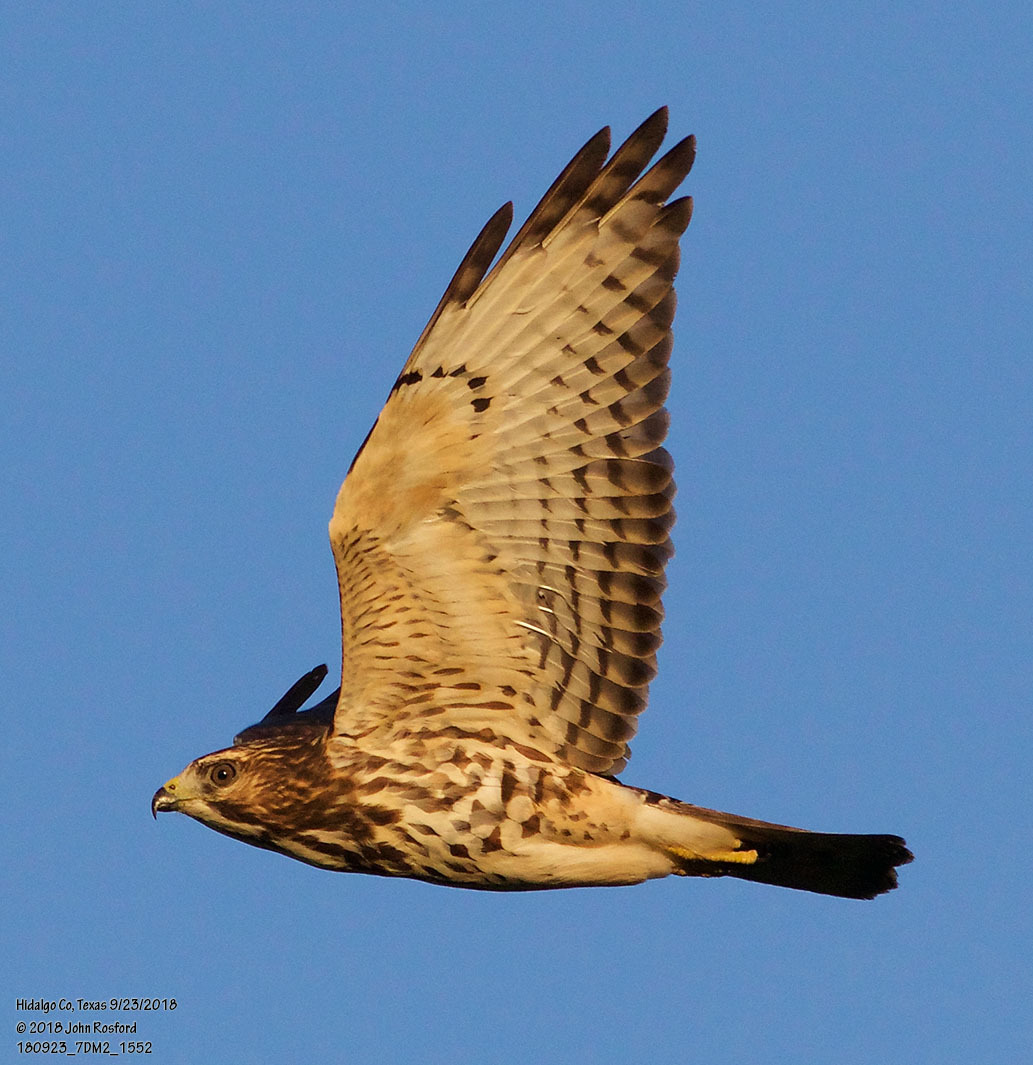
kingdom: Animalia
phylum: Chordata
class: Aves
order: Accipitriformes
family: Accipitridae
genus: Buteo
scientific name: Buteo platypterus
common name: Broad-winged hawk
